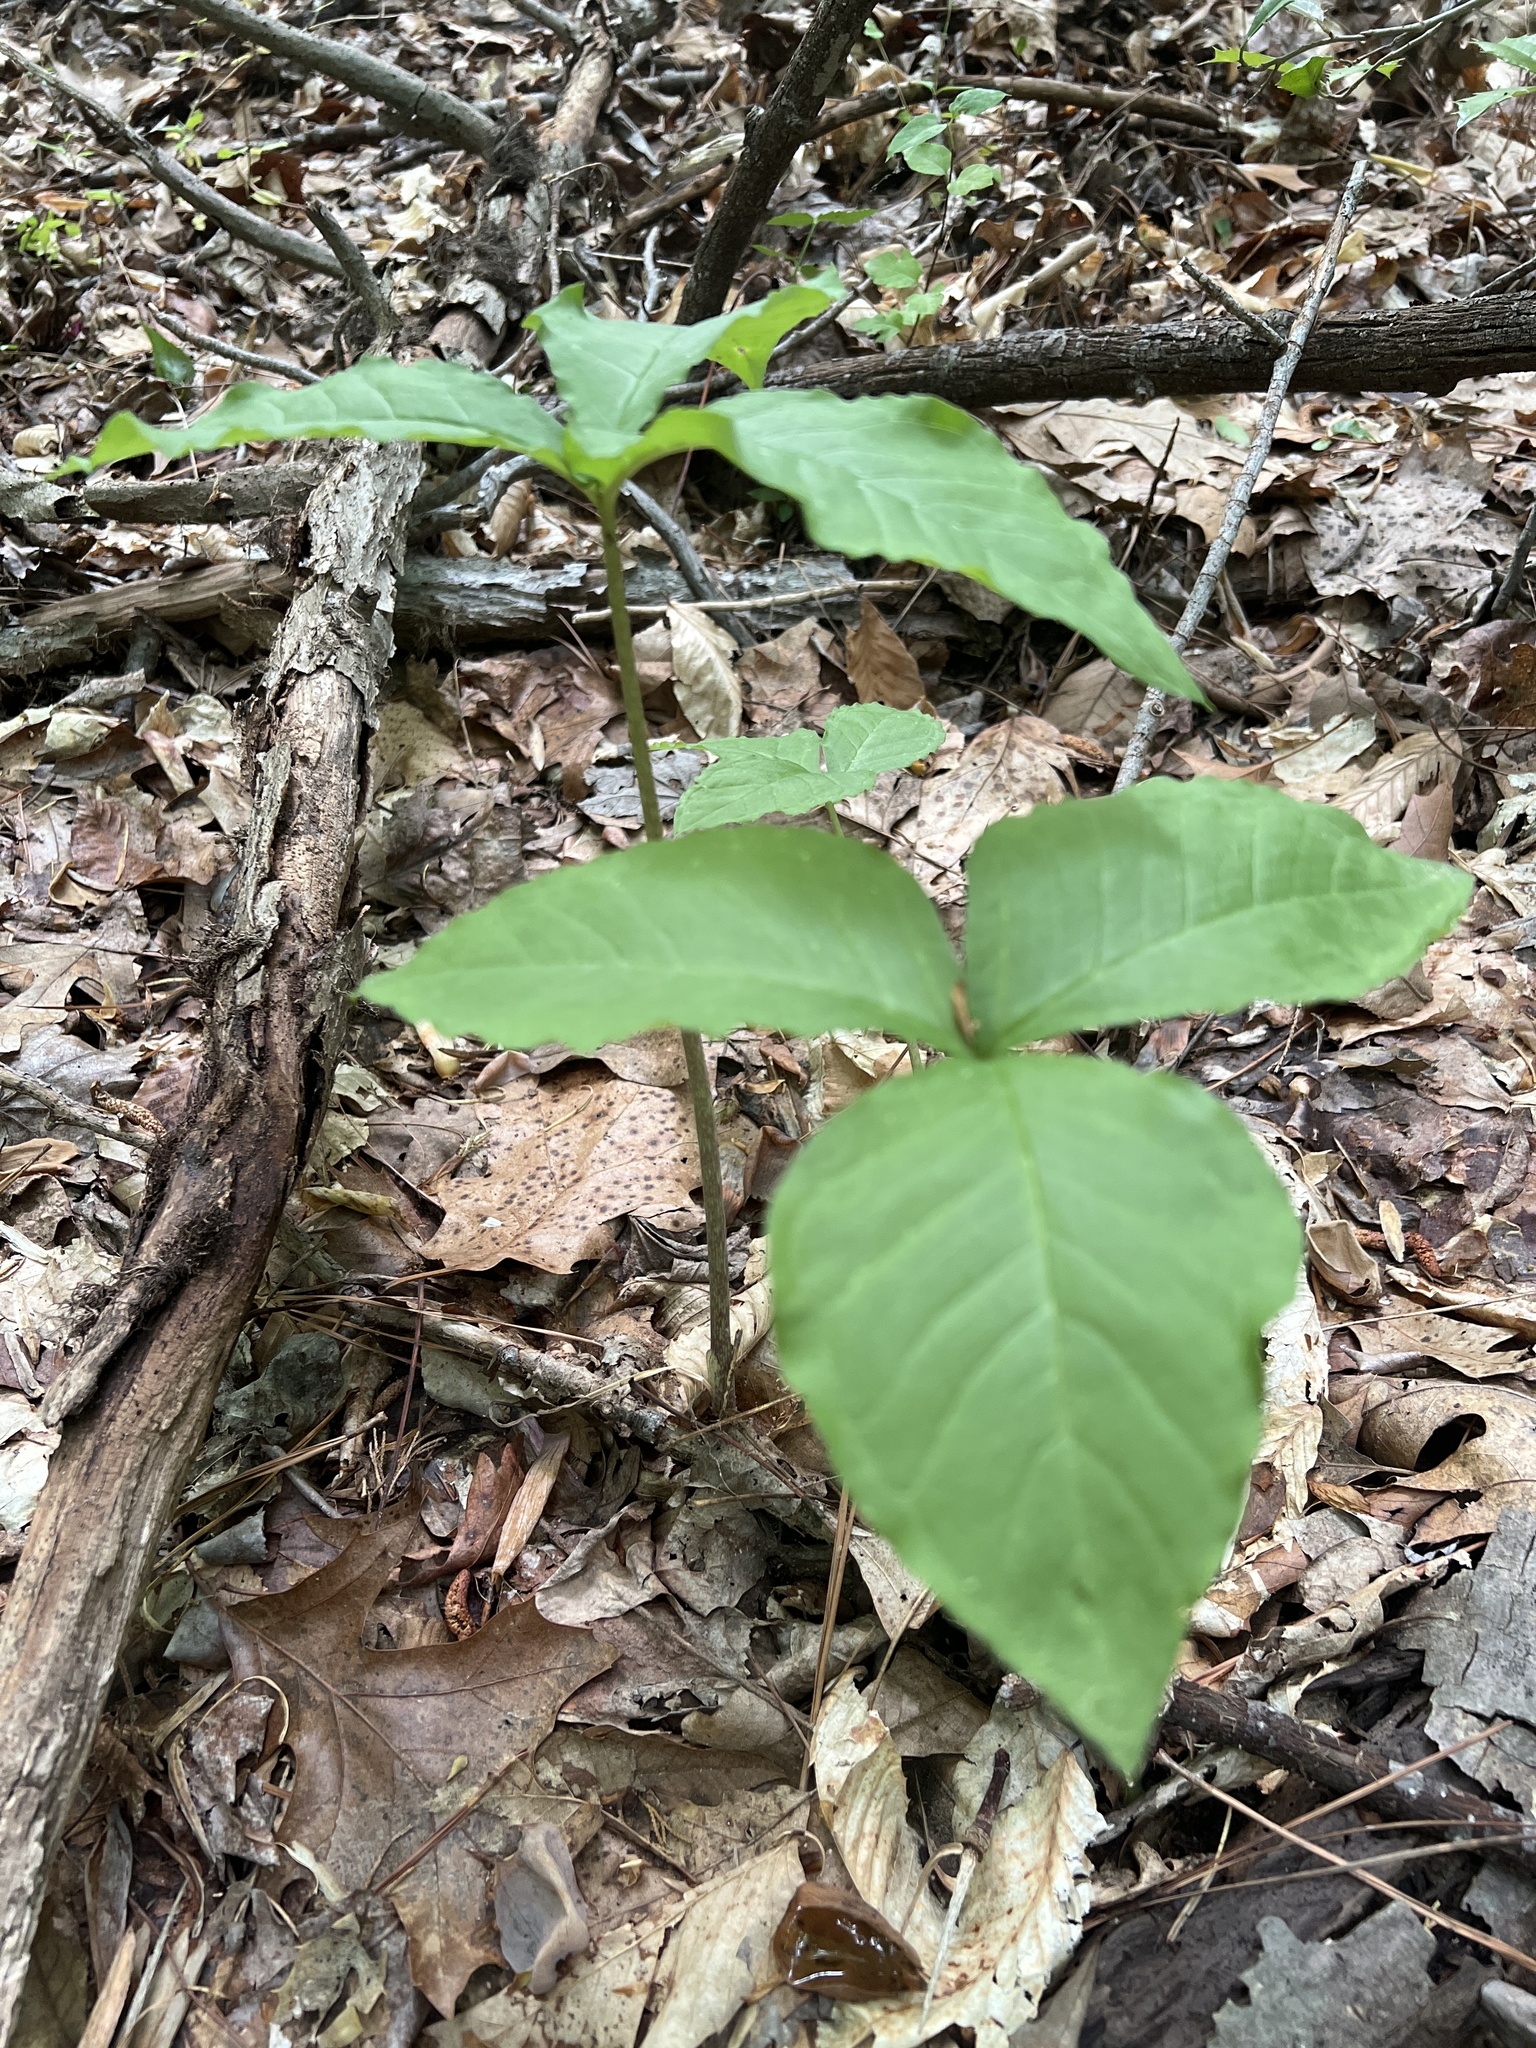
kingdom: Plantae
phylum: Tracheophyta
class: Liliopsida
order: Alismatales
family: Araceae
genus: Arisaema
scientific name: Arisaema triphyllum
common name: Jack-in-the-pulpit
